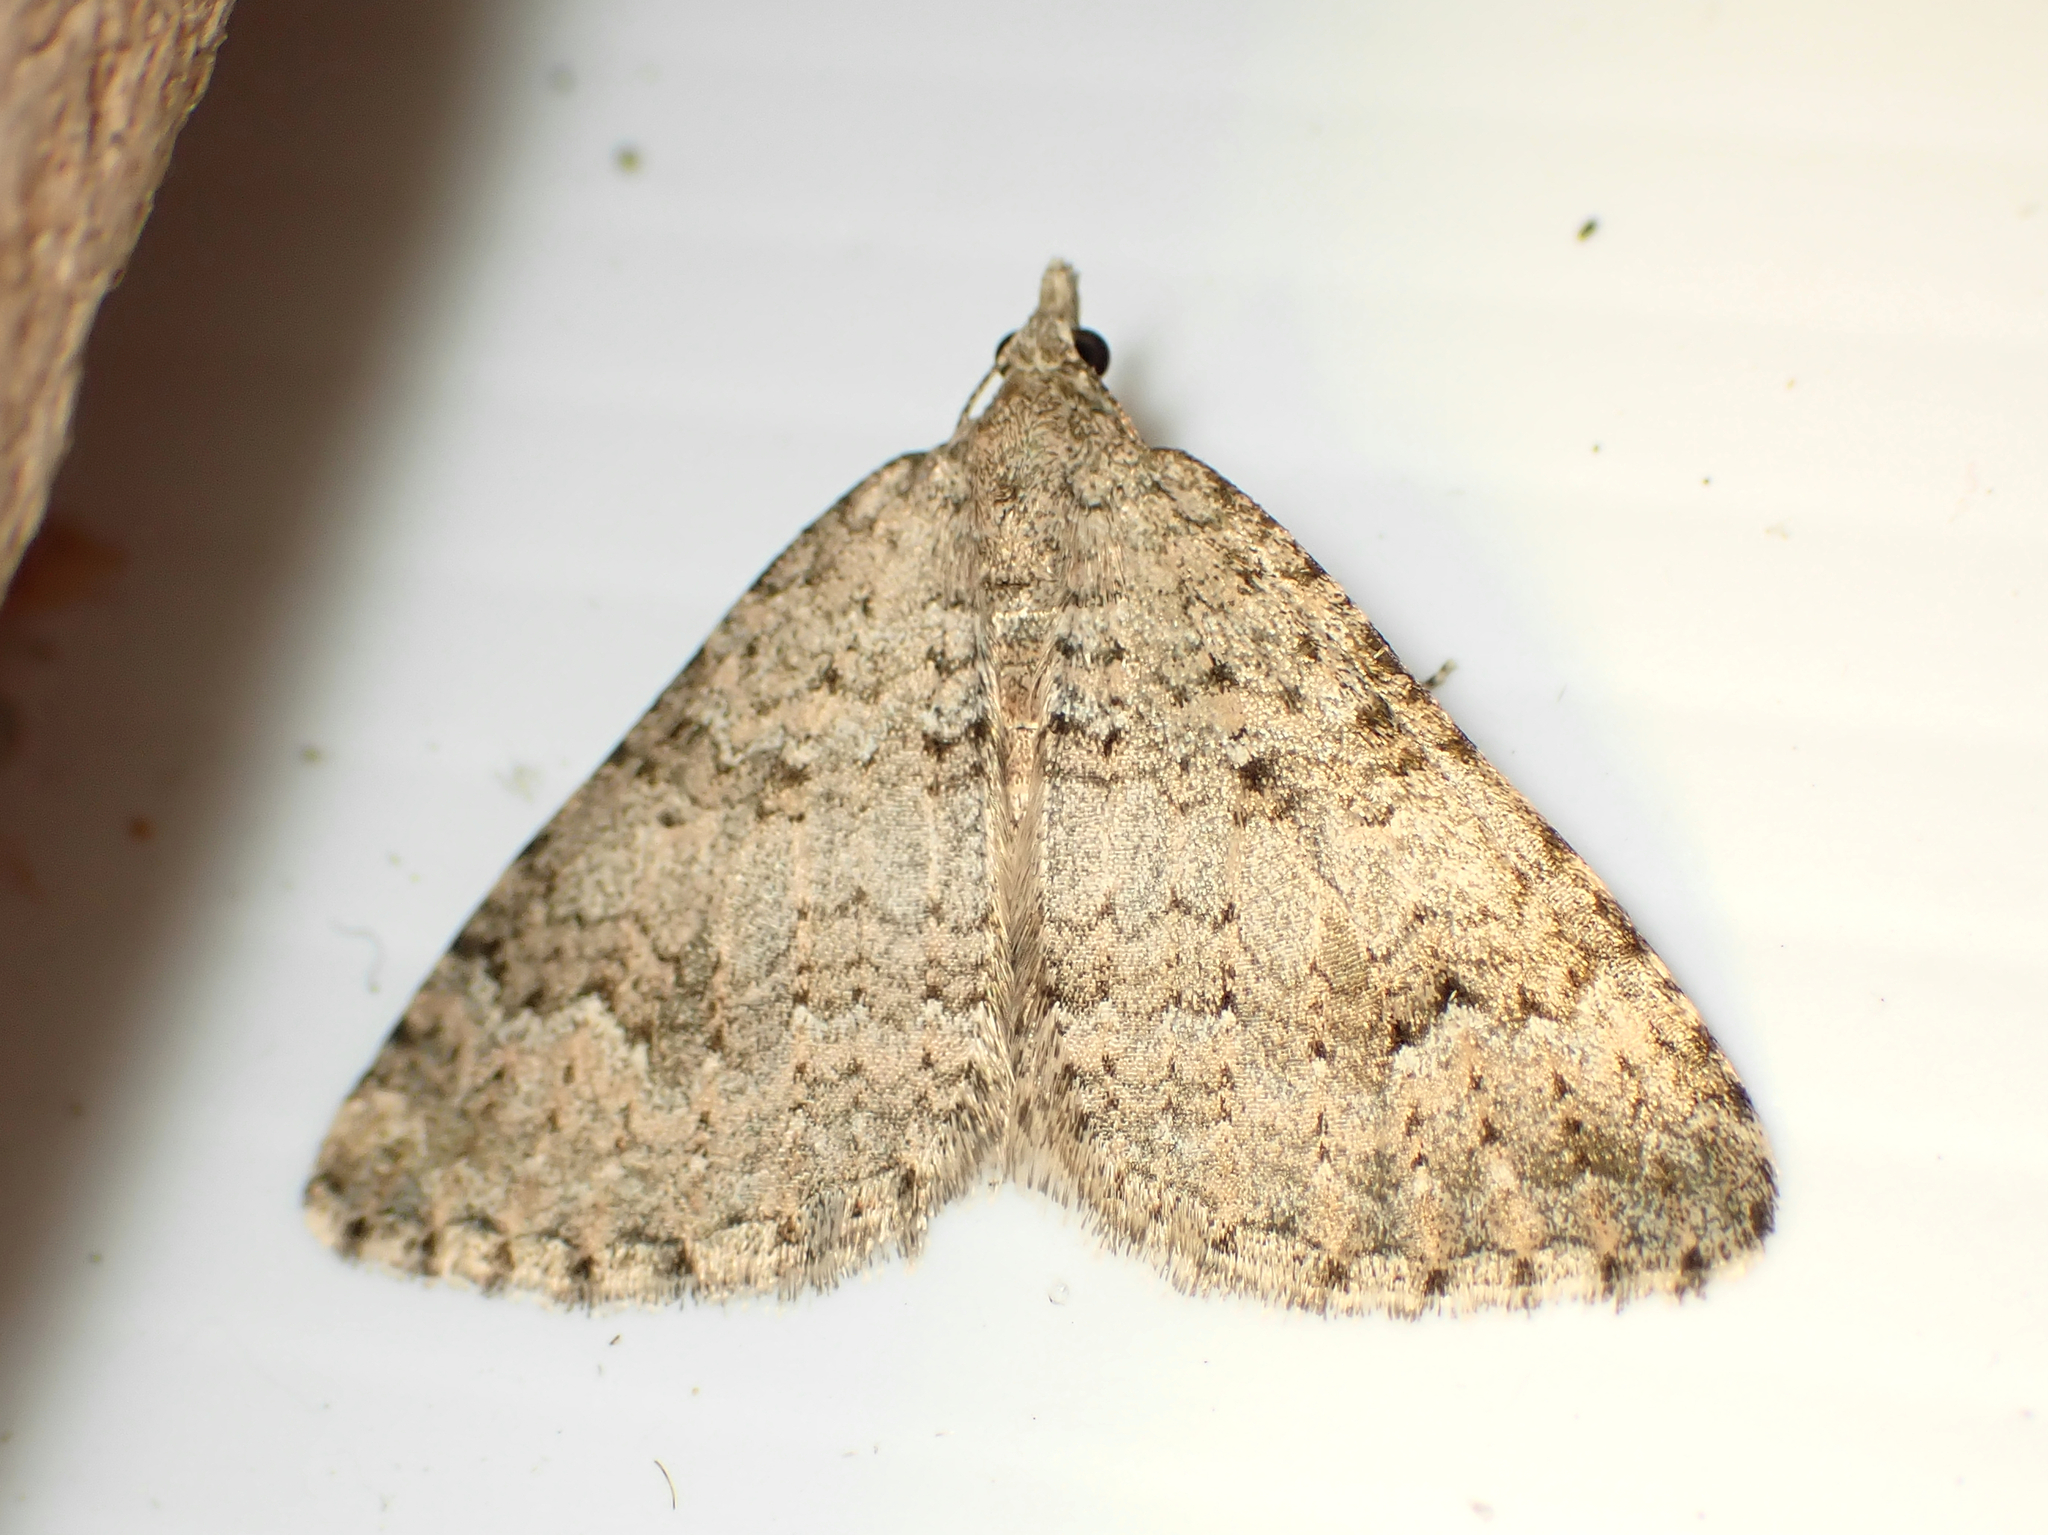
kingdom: Animalia
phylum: Arthropoda
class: Insecta
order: Lepidoptera
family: Geometridae
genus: Helastia
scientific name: Helastia corcularia
